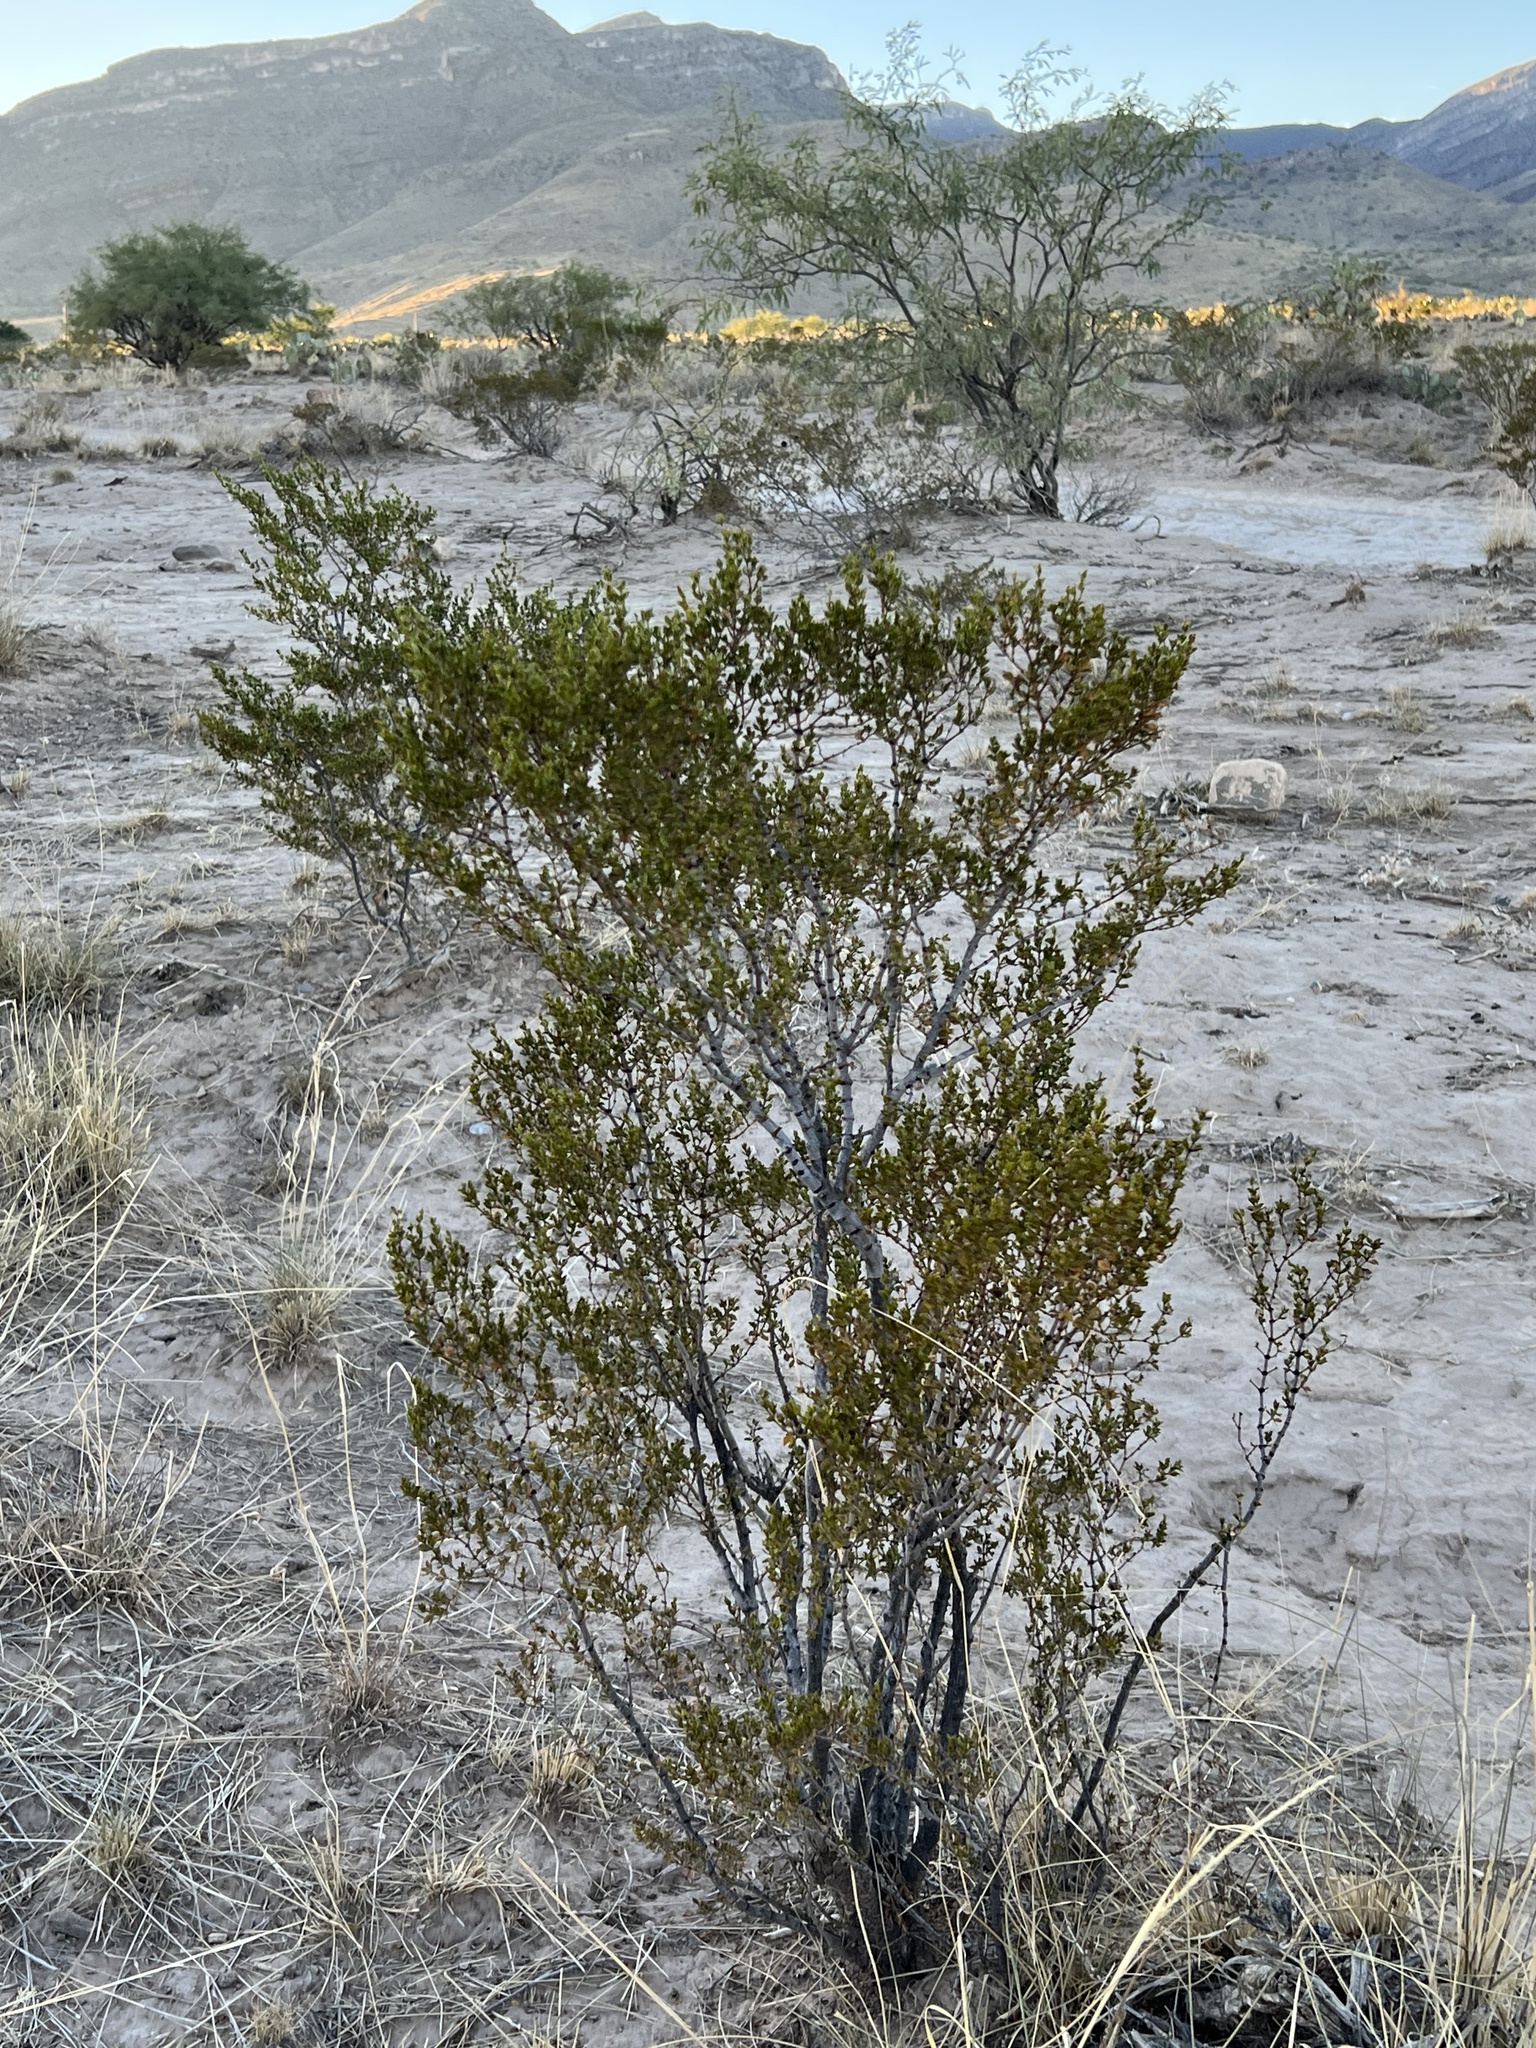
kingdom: Plantae
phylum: Tracheophyta
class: Magnoliopsida
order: Zygophyllales
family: Zygophyllaceae
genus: Larrea
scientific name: Larrea tridentata
